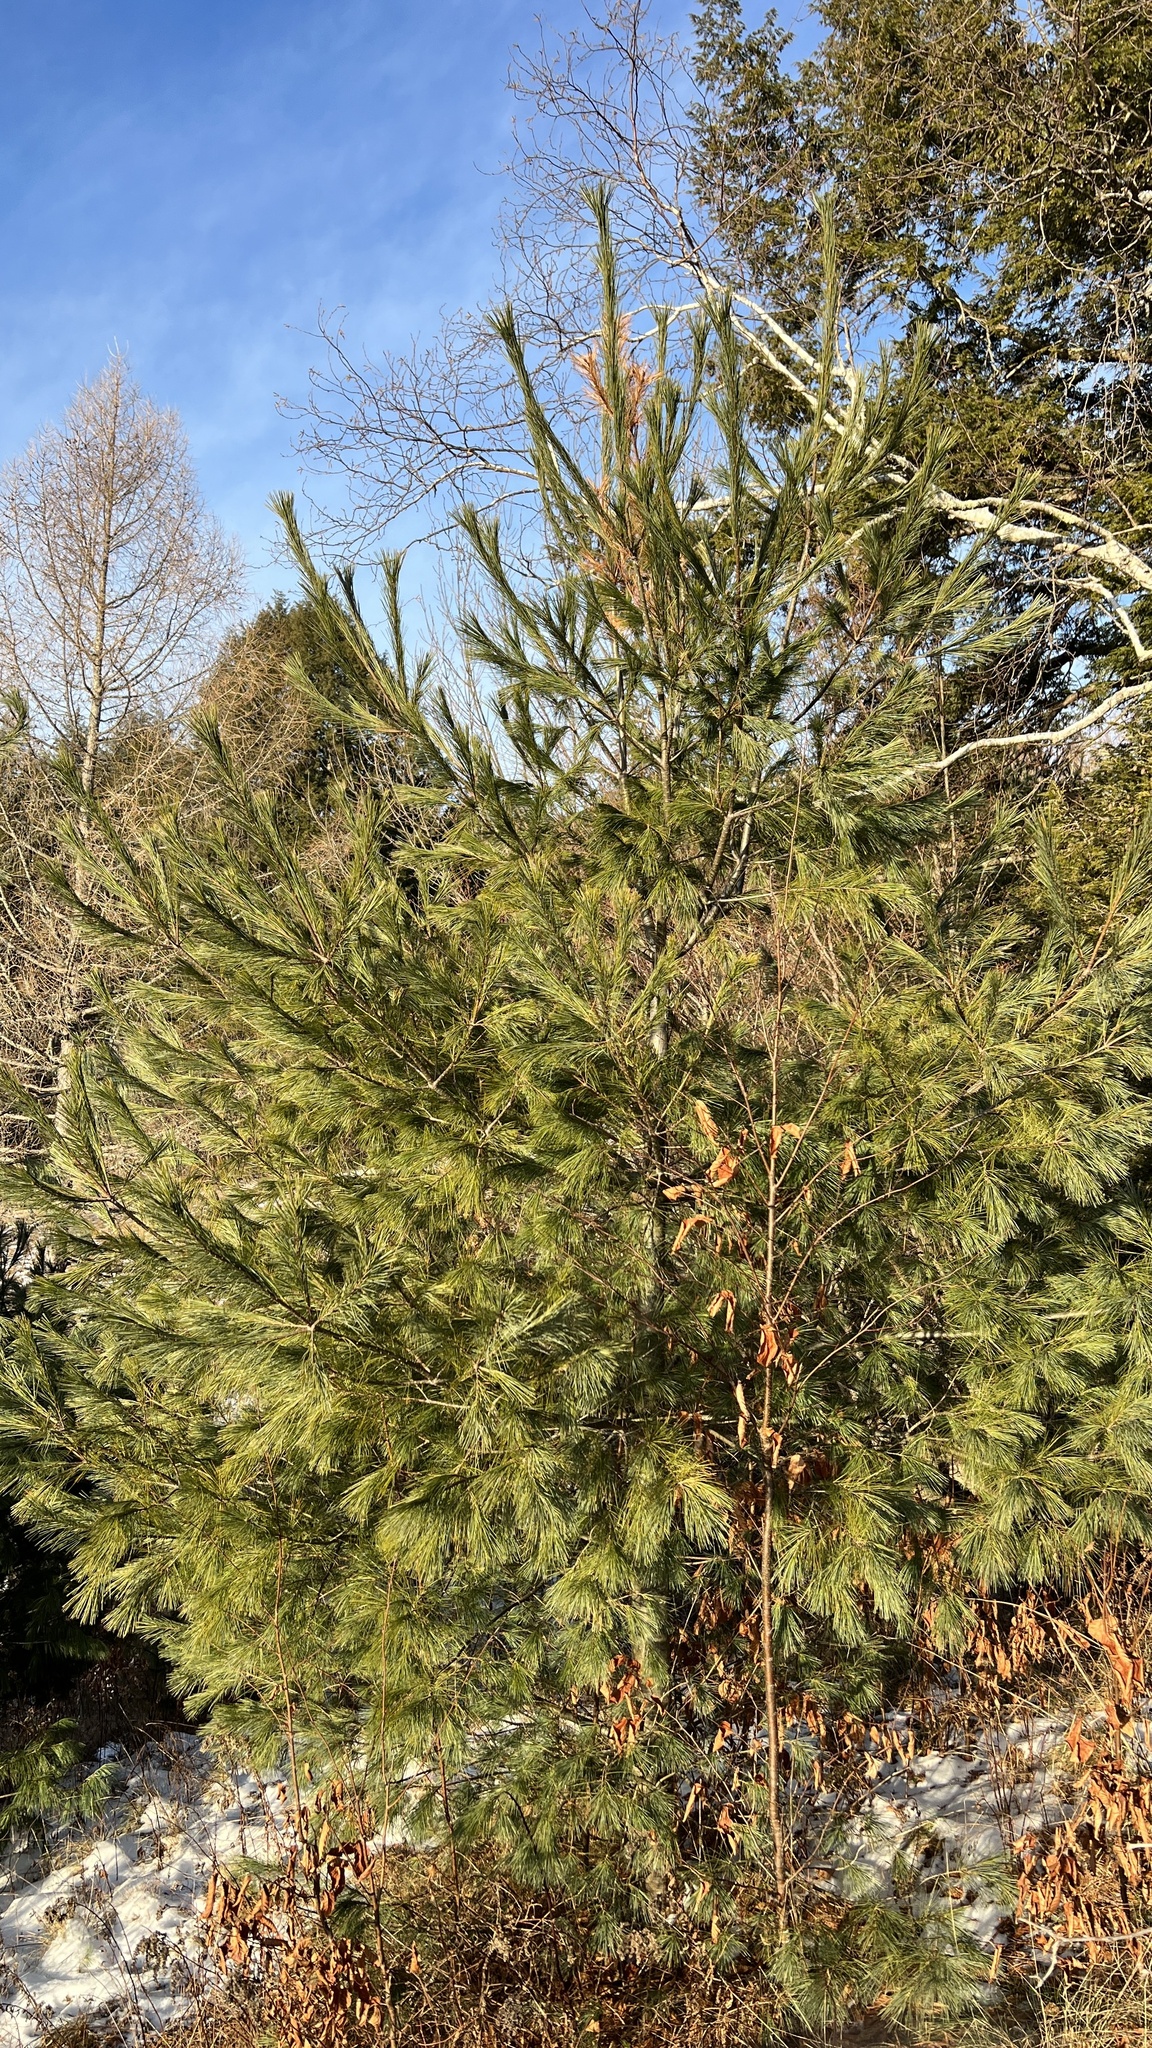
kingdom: Plantae
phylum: Tracheophyta
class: Pinopsida
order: Pinales
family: Pinaceae
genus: Pinus
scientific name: Pinus strobus
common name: Weymouth pine
